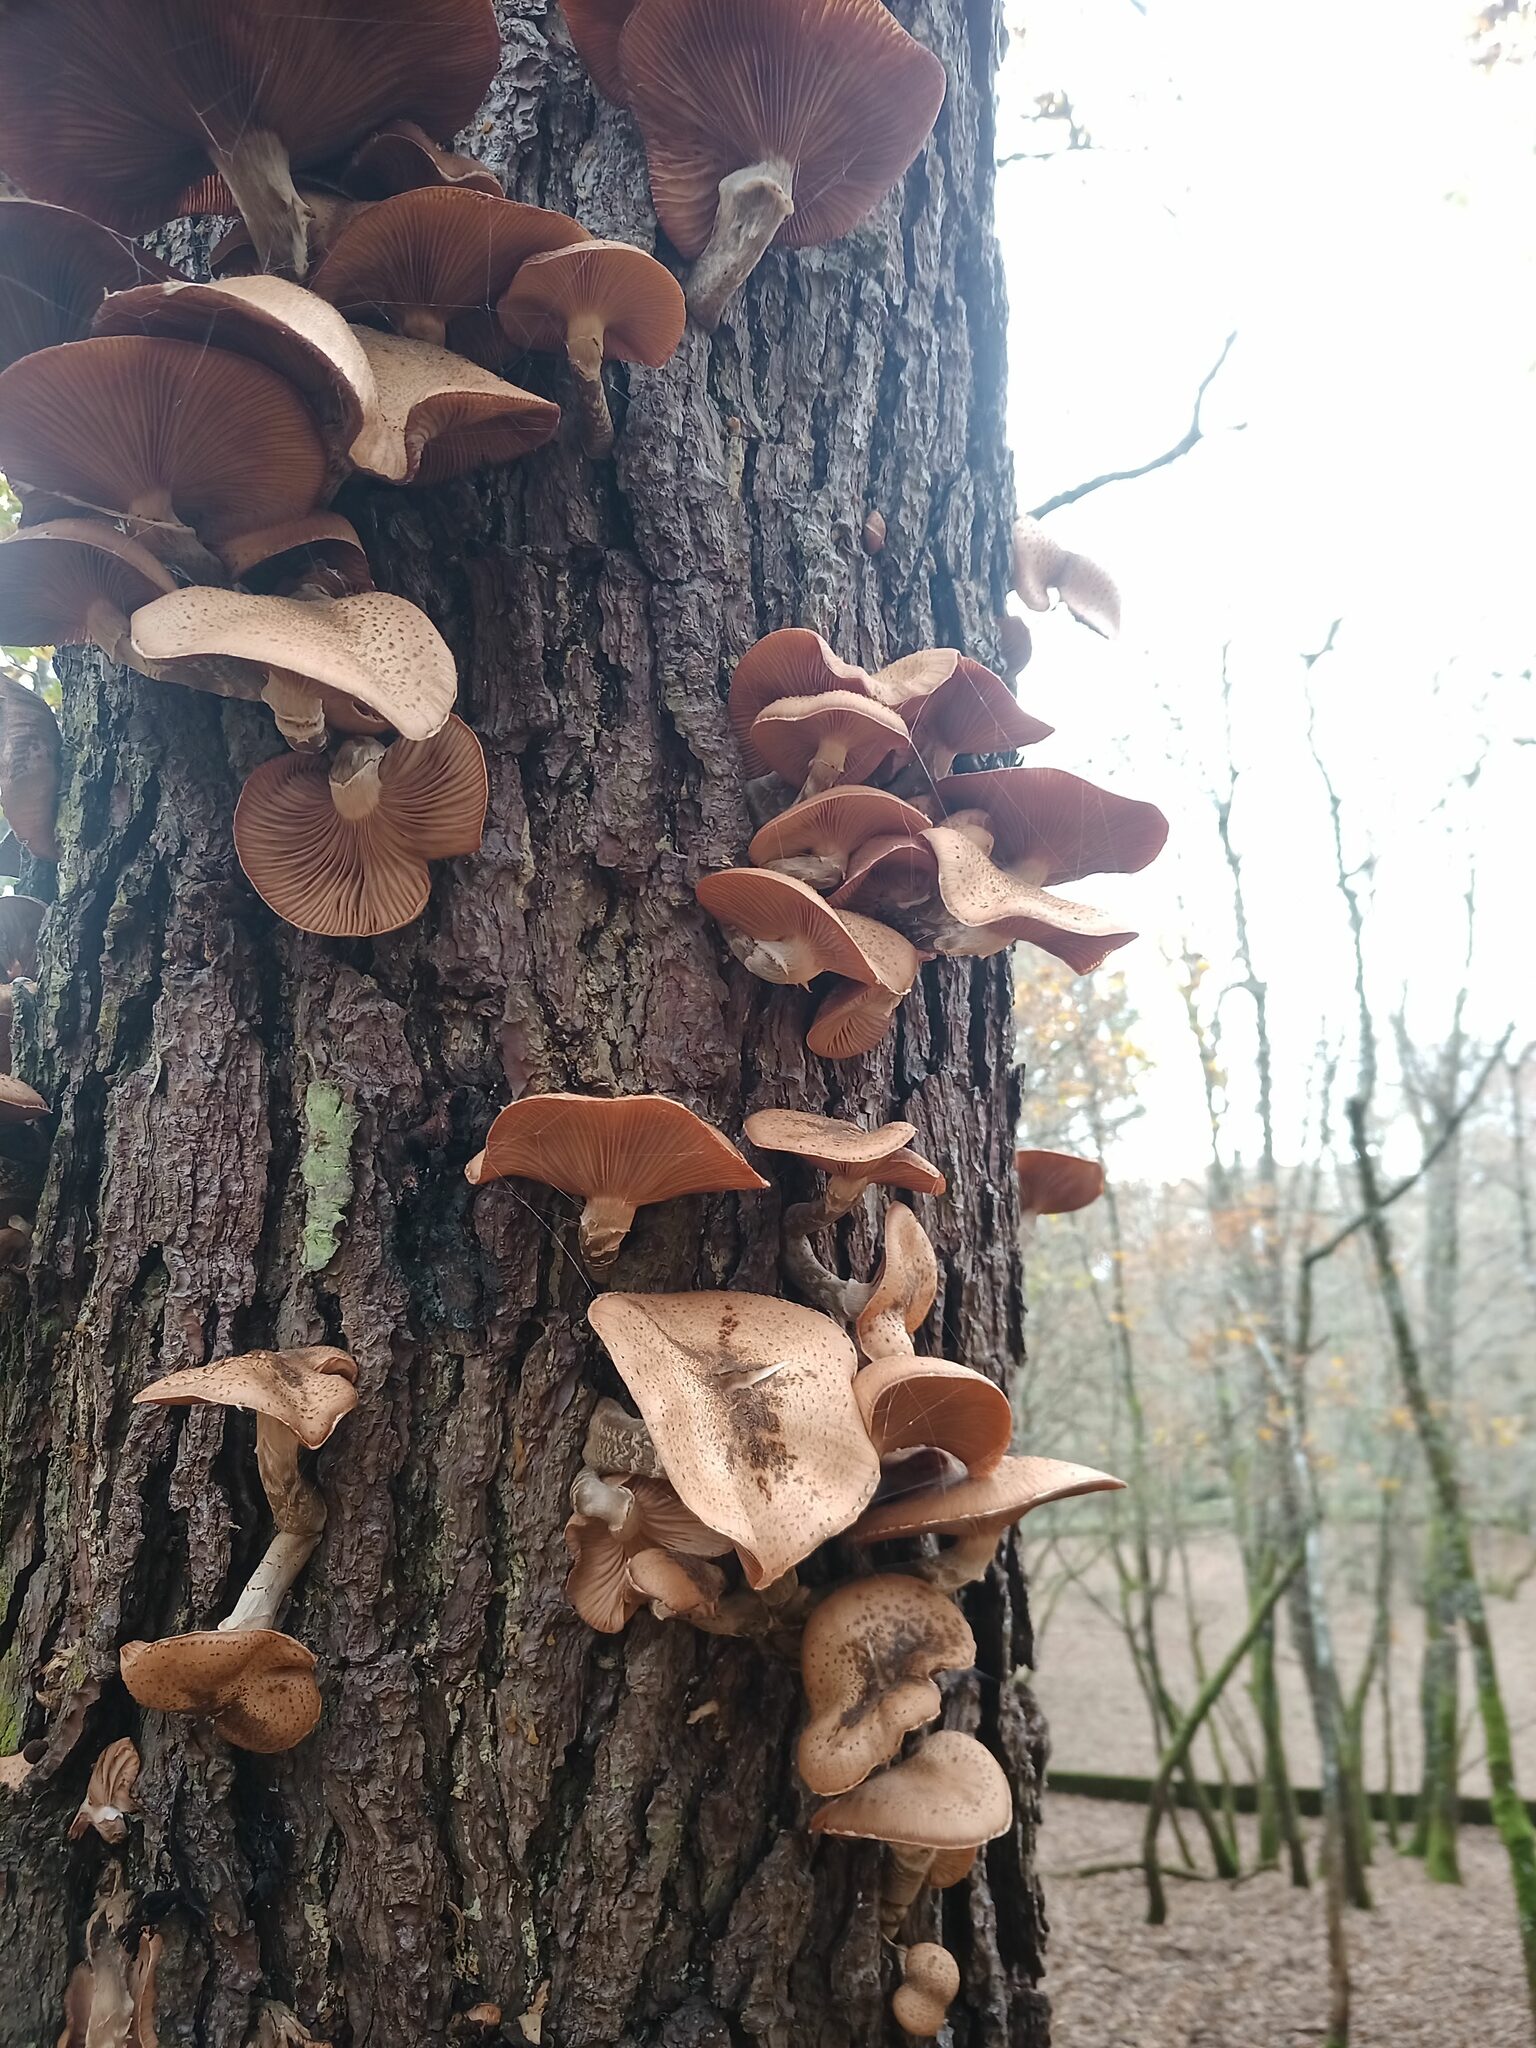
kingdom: Fungi
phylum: Basidiomycota
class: Agaricomycetes
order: Agaricales
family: Physalacriaceae
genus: Armillaria
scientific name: Armillaria ostoyae
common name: Dark honey fungus
